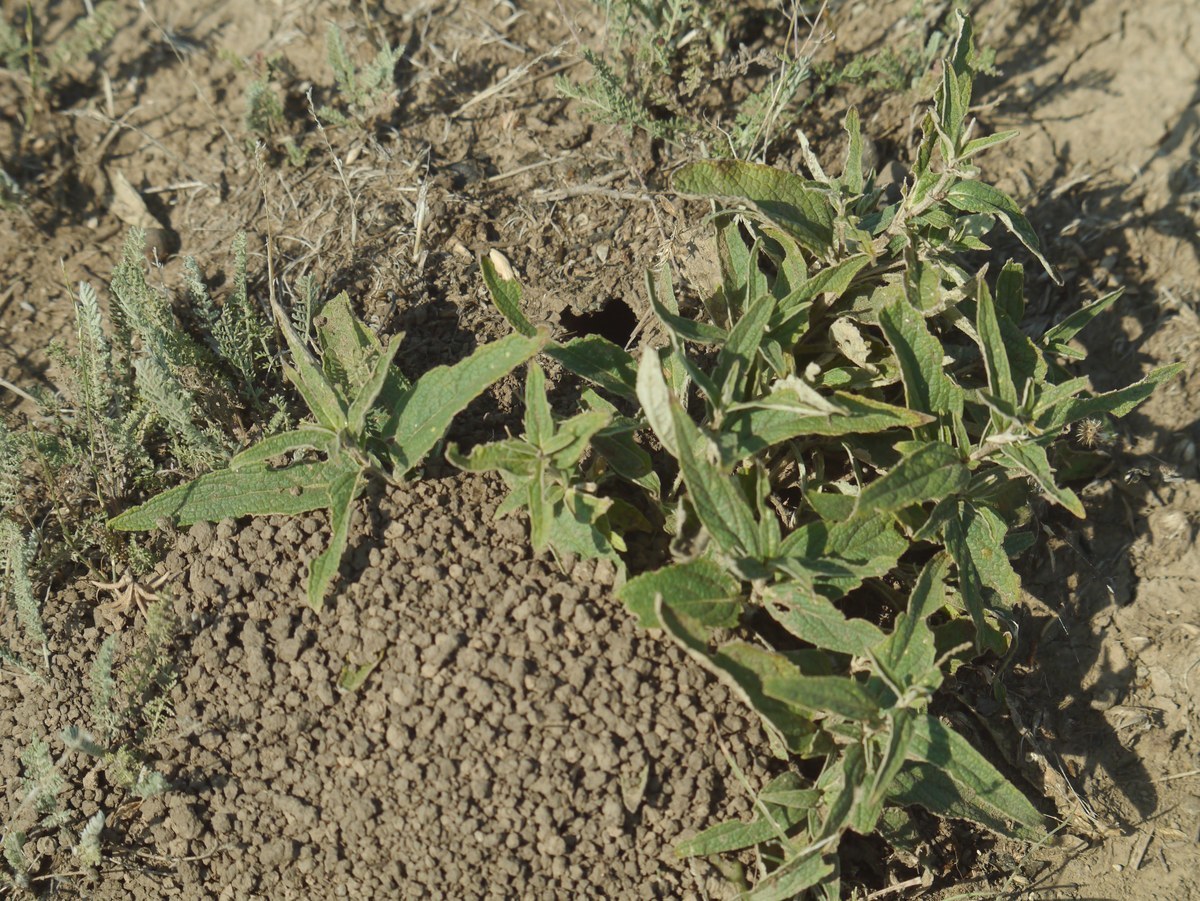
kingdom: Animalia
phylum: Arthropoda
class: Insecta
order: Hymenoptera
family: Sphecidae
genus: Sphex
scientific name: Sphex flavipennis
